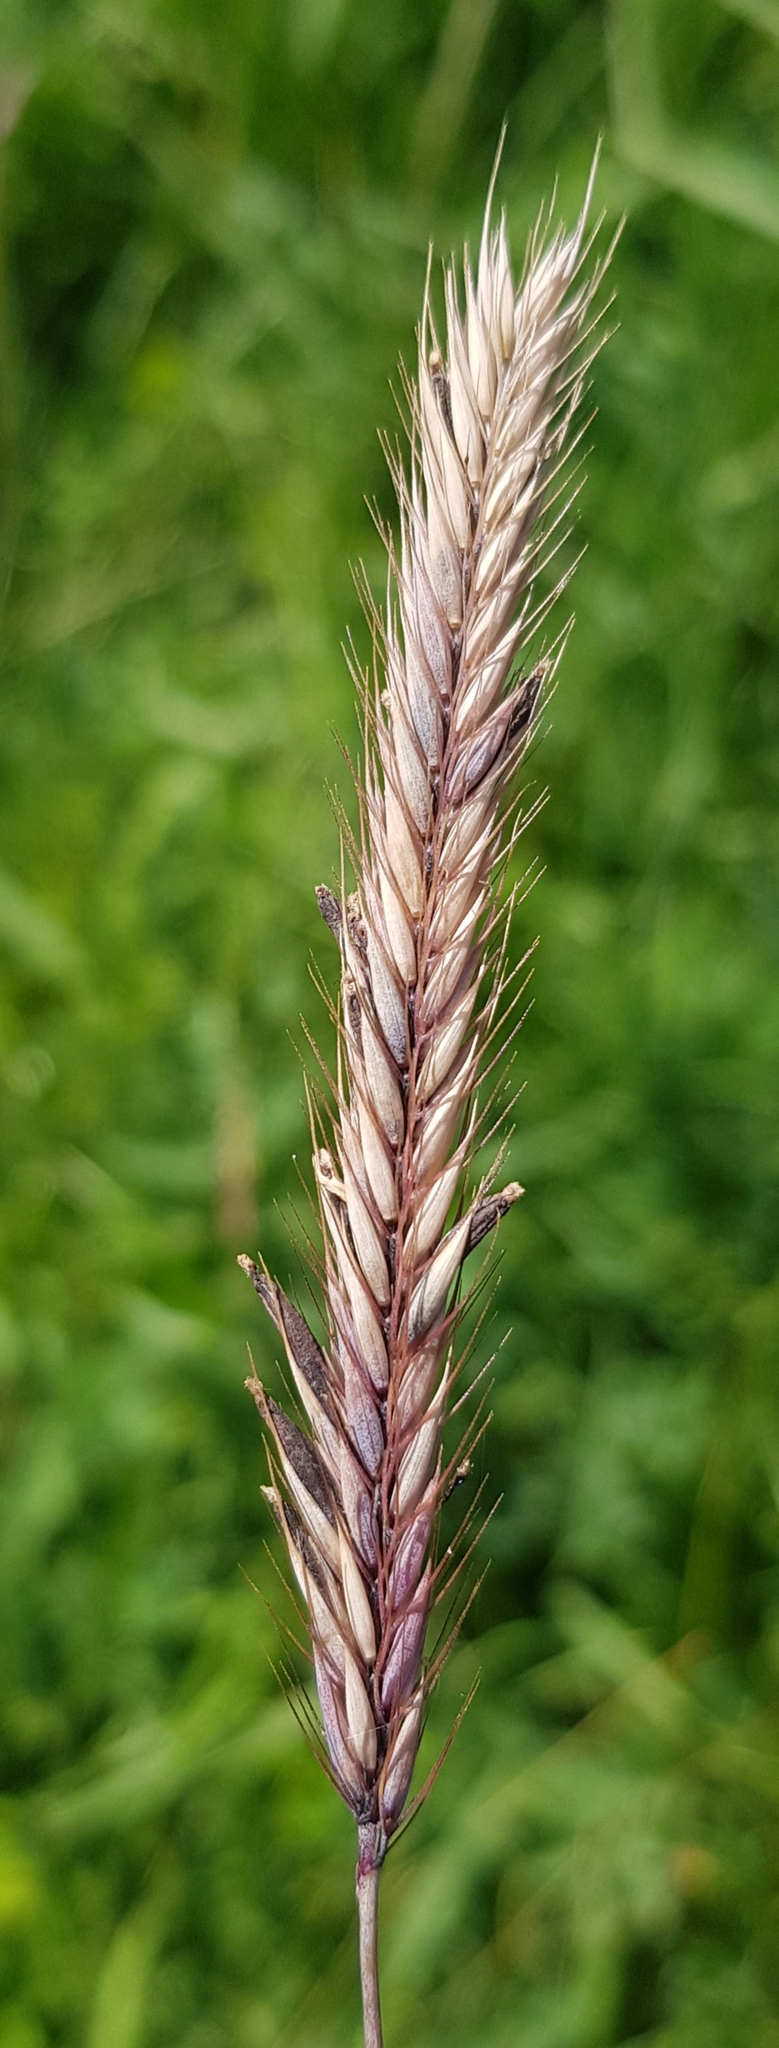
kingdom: Plantae
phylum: Tracheophyta
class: Liliopsida
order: Poales
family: Poaceae
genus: Hordeum
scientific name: Hordeum brevisubulatum
